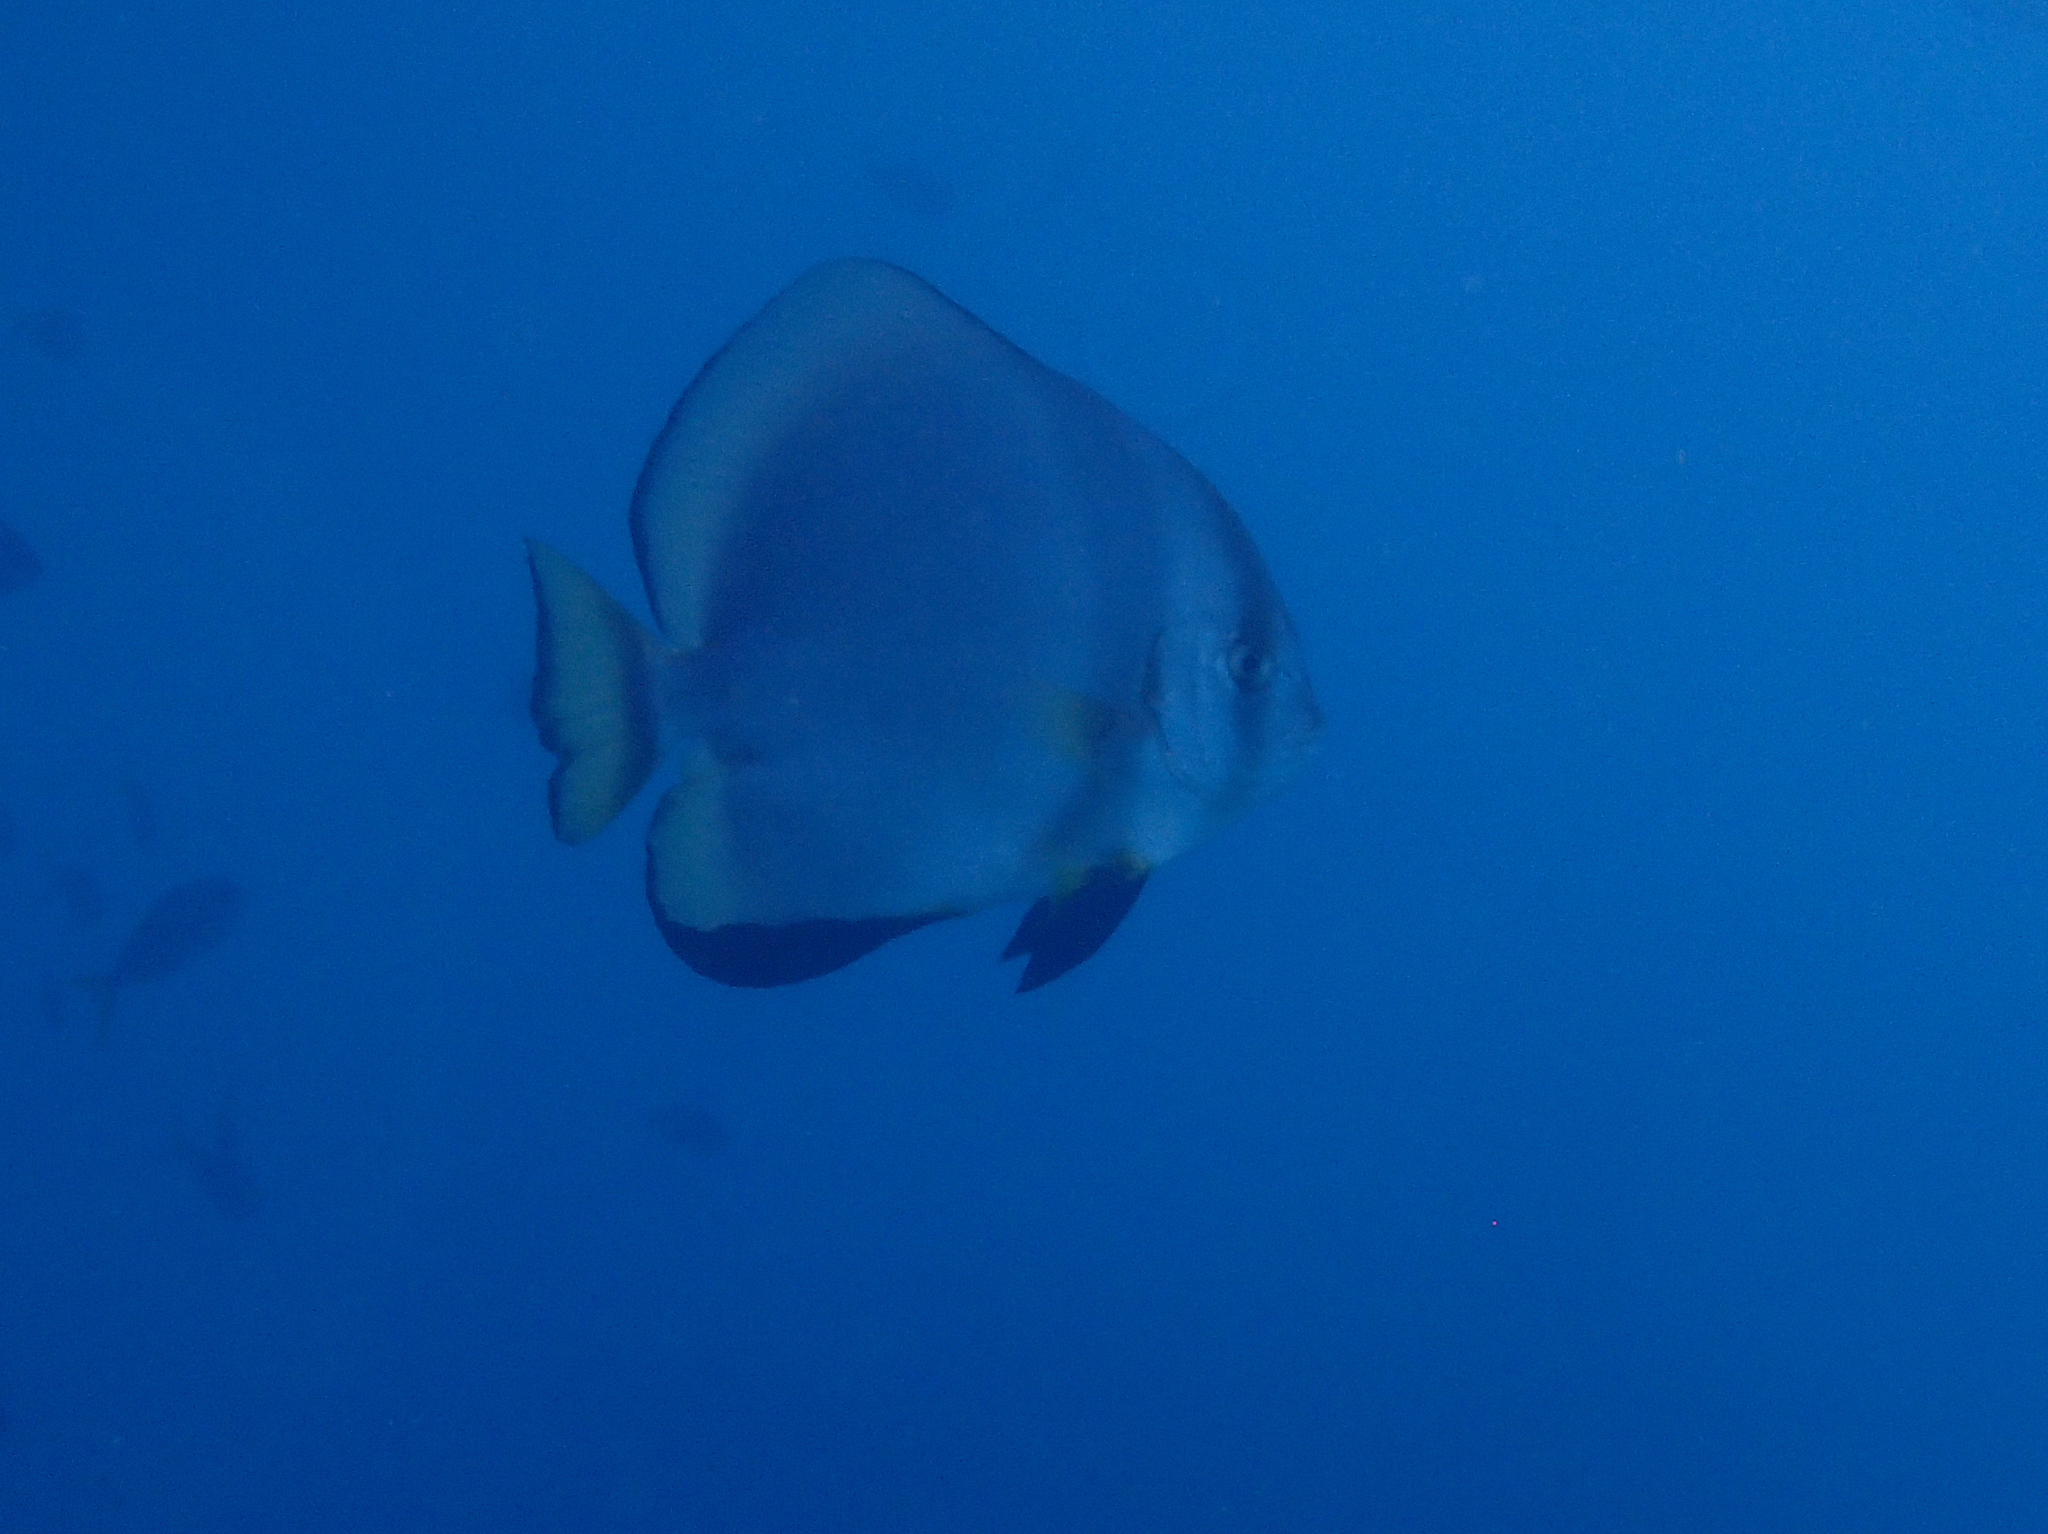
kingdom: Animalia
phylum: Chordata
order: Perciformes
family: Ephippidae
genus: Platax
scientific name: Platax orbicularis
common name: Batfish
